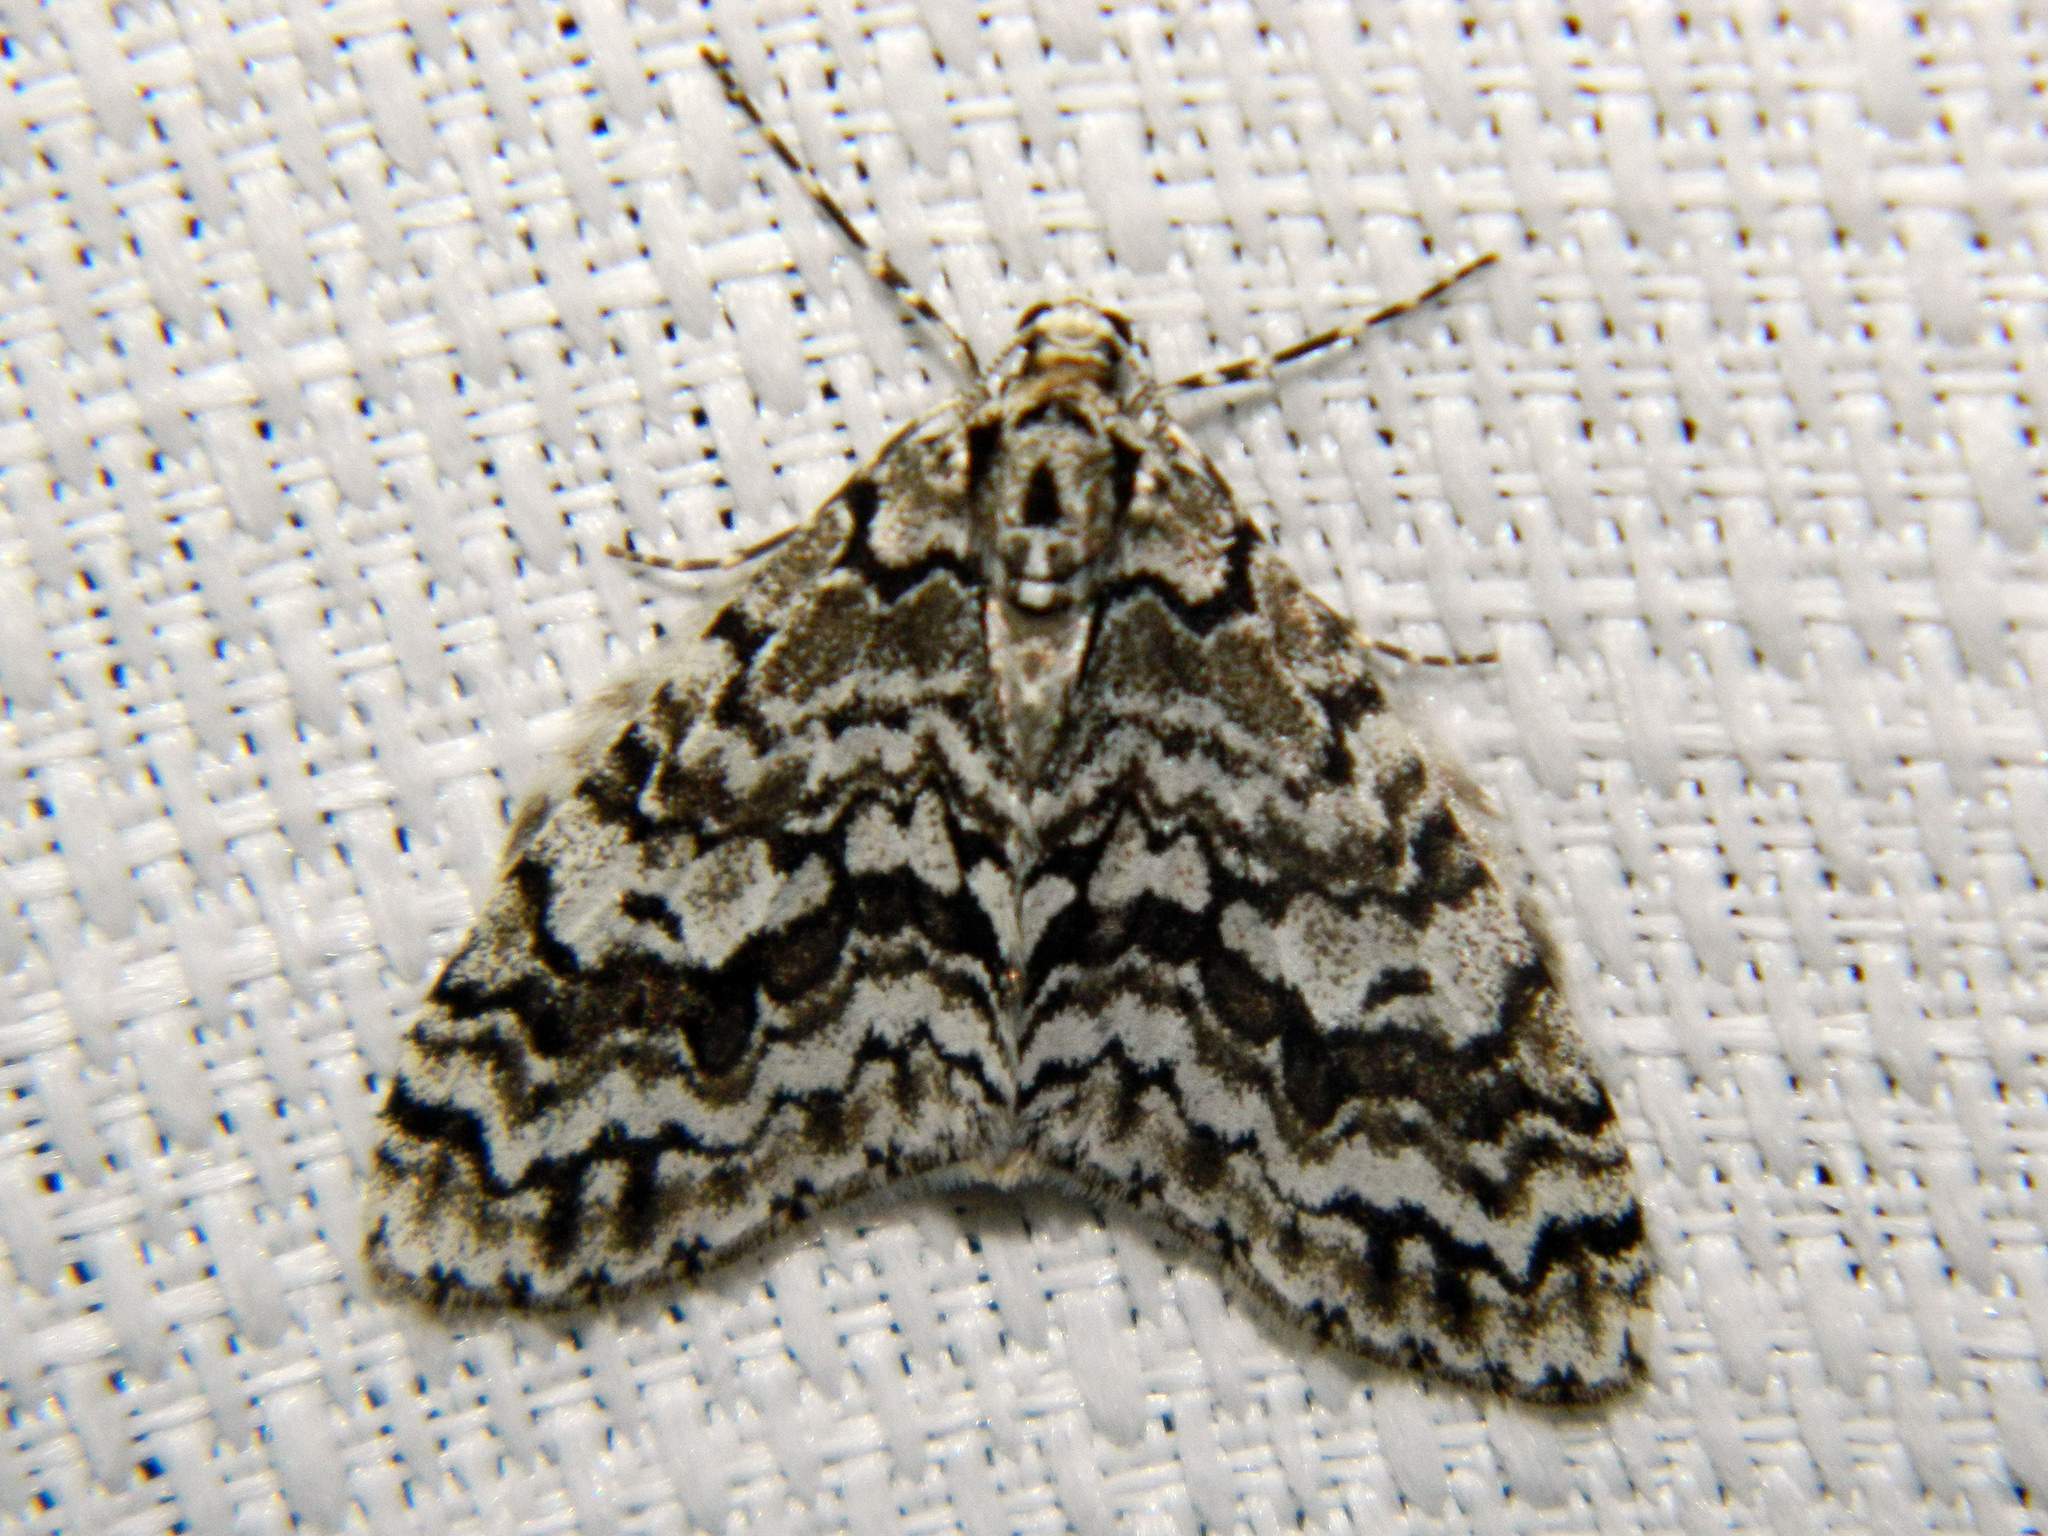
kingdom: Animalia
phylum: Arthropoda
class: Insecta
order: Lepidoptera
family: Geometridae
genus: Cladara
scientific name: Cladara atroliturata
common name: Scribbler
